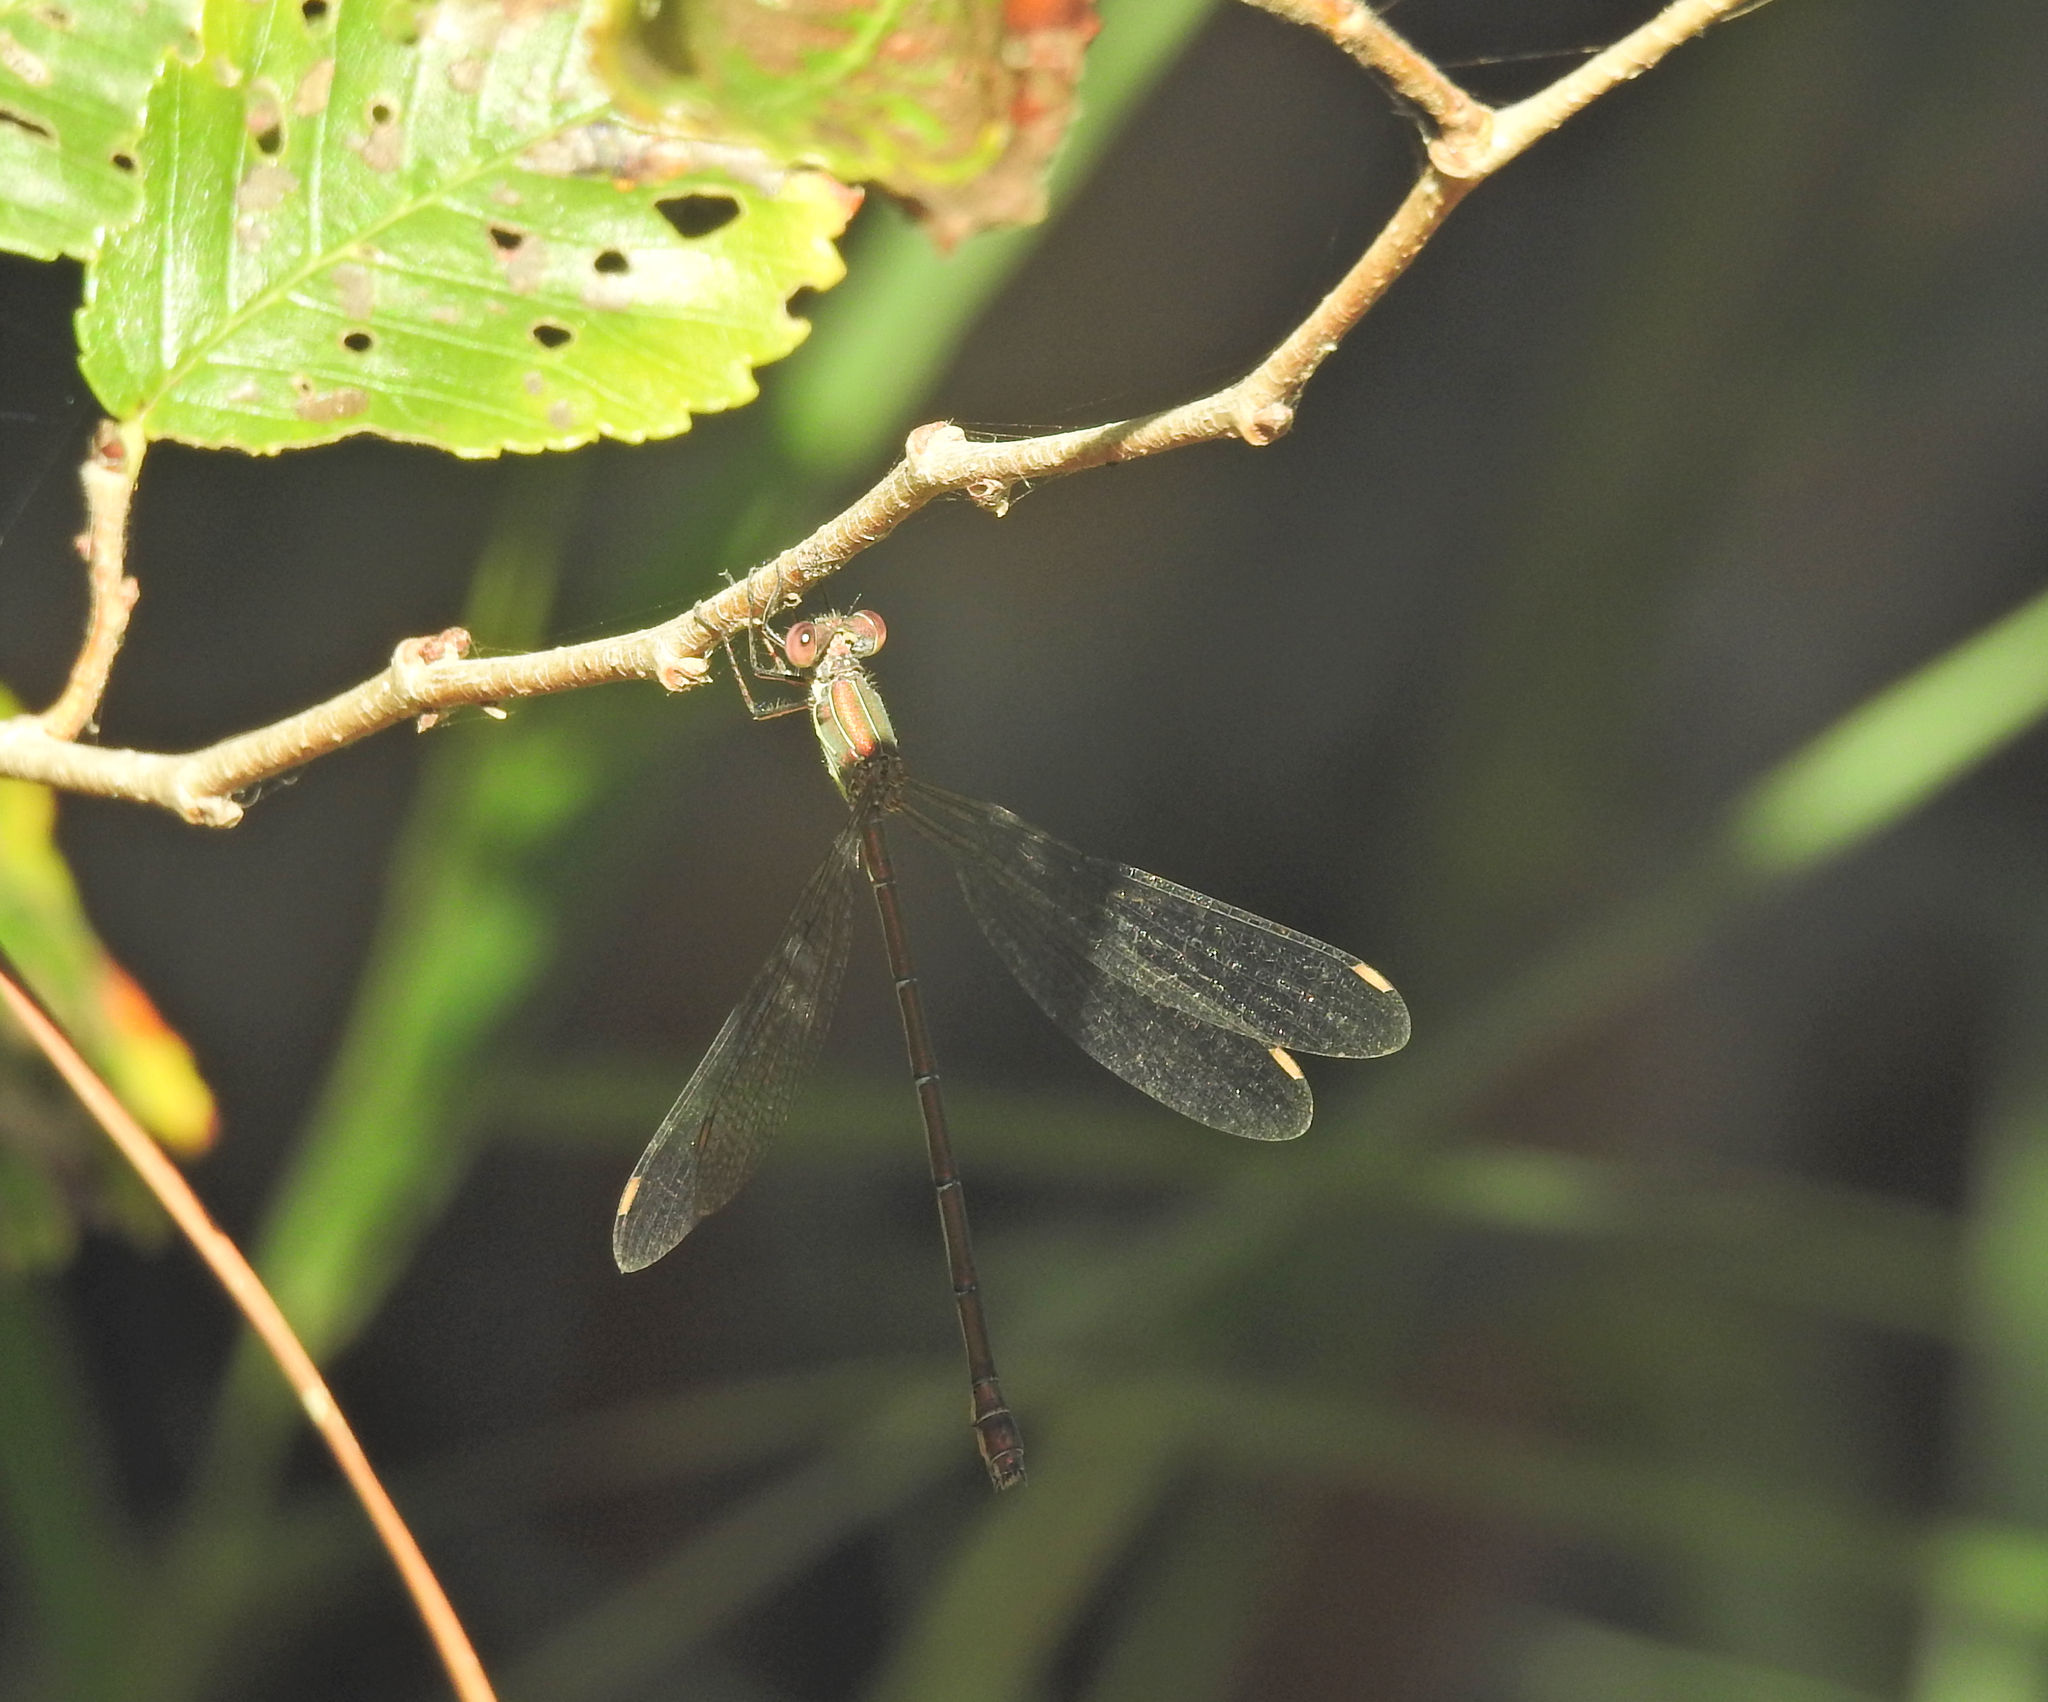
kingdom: Animalia
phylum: Arthropoda
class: Insecta
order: Odonata
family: Lestidae
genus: Chalcolestes
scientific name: Chalcolestes viridis
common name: Green emerald damselfly
